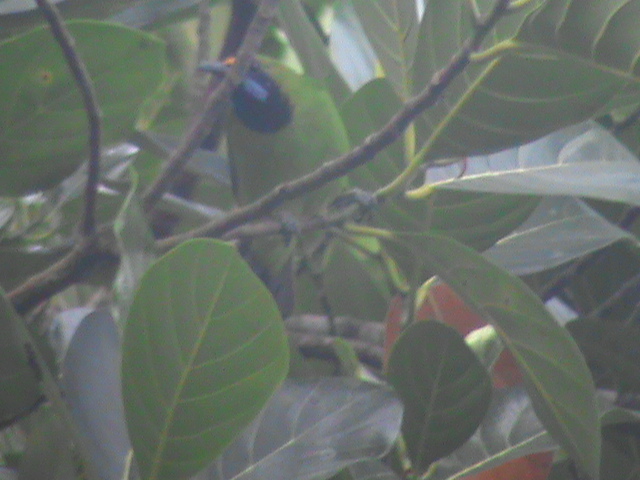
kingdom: Animalia
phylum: Chordata
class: Aves
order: Passeriformes
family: Chloropseidae
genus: Chloropsis
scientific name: Chloropsis aurifrons
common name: Golden-fronted leafbird
